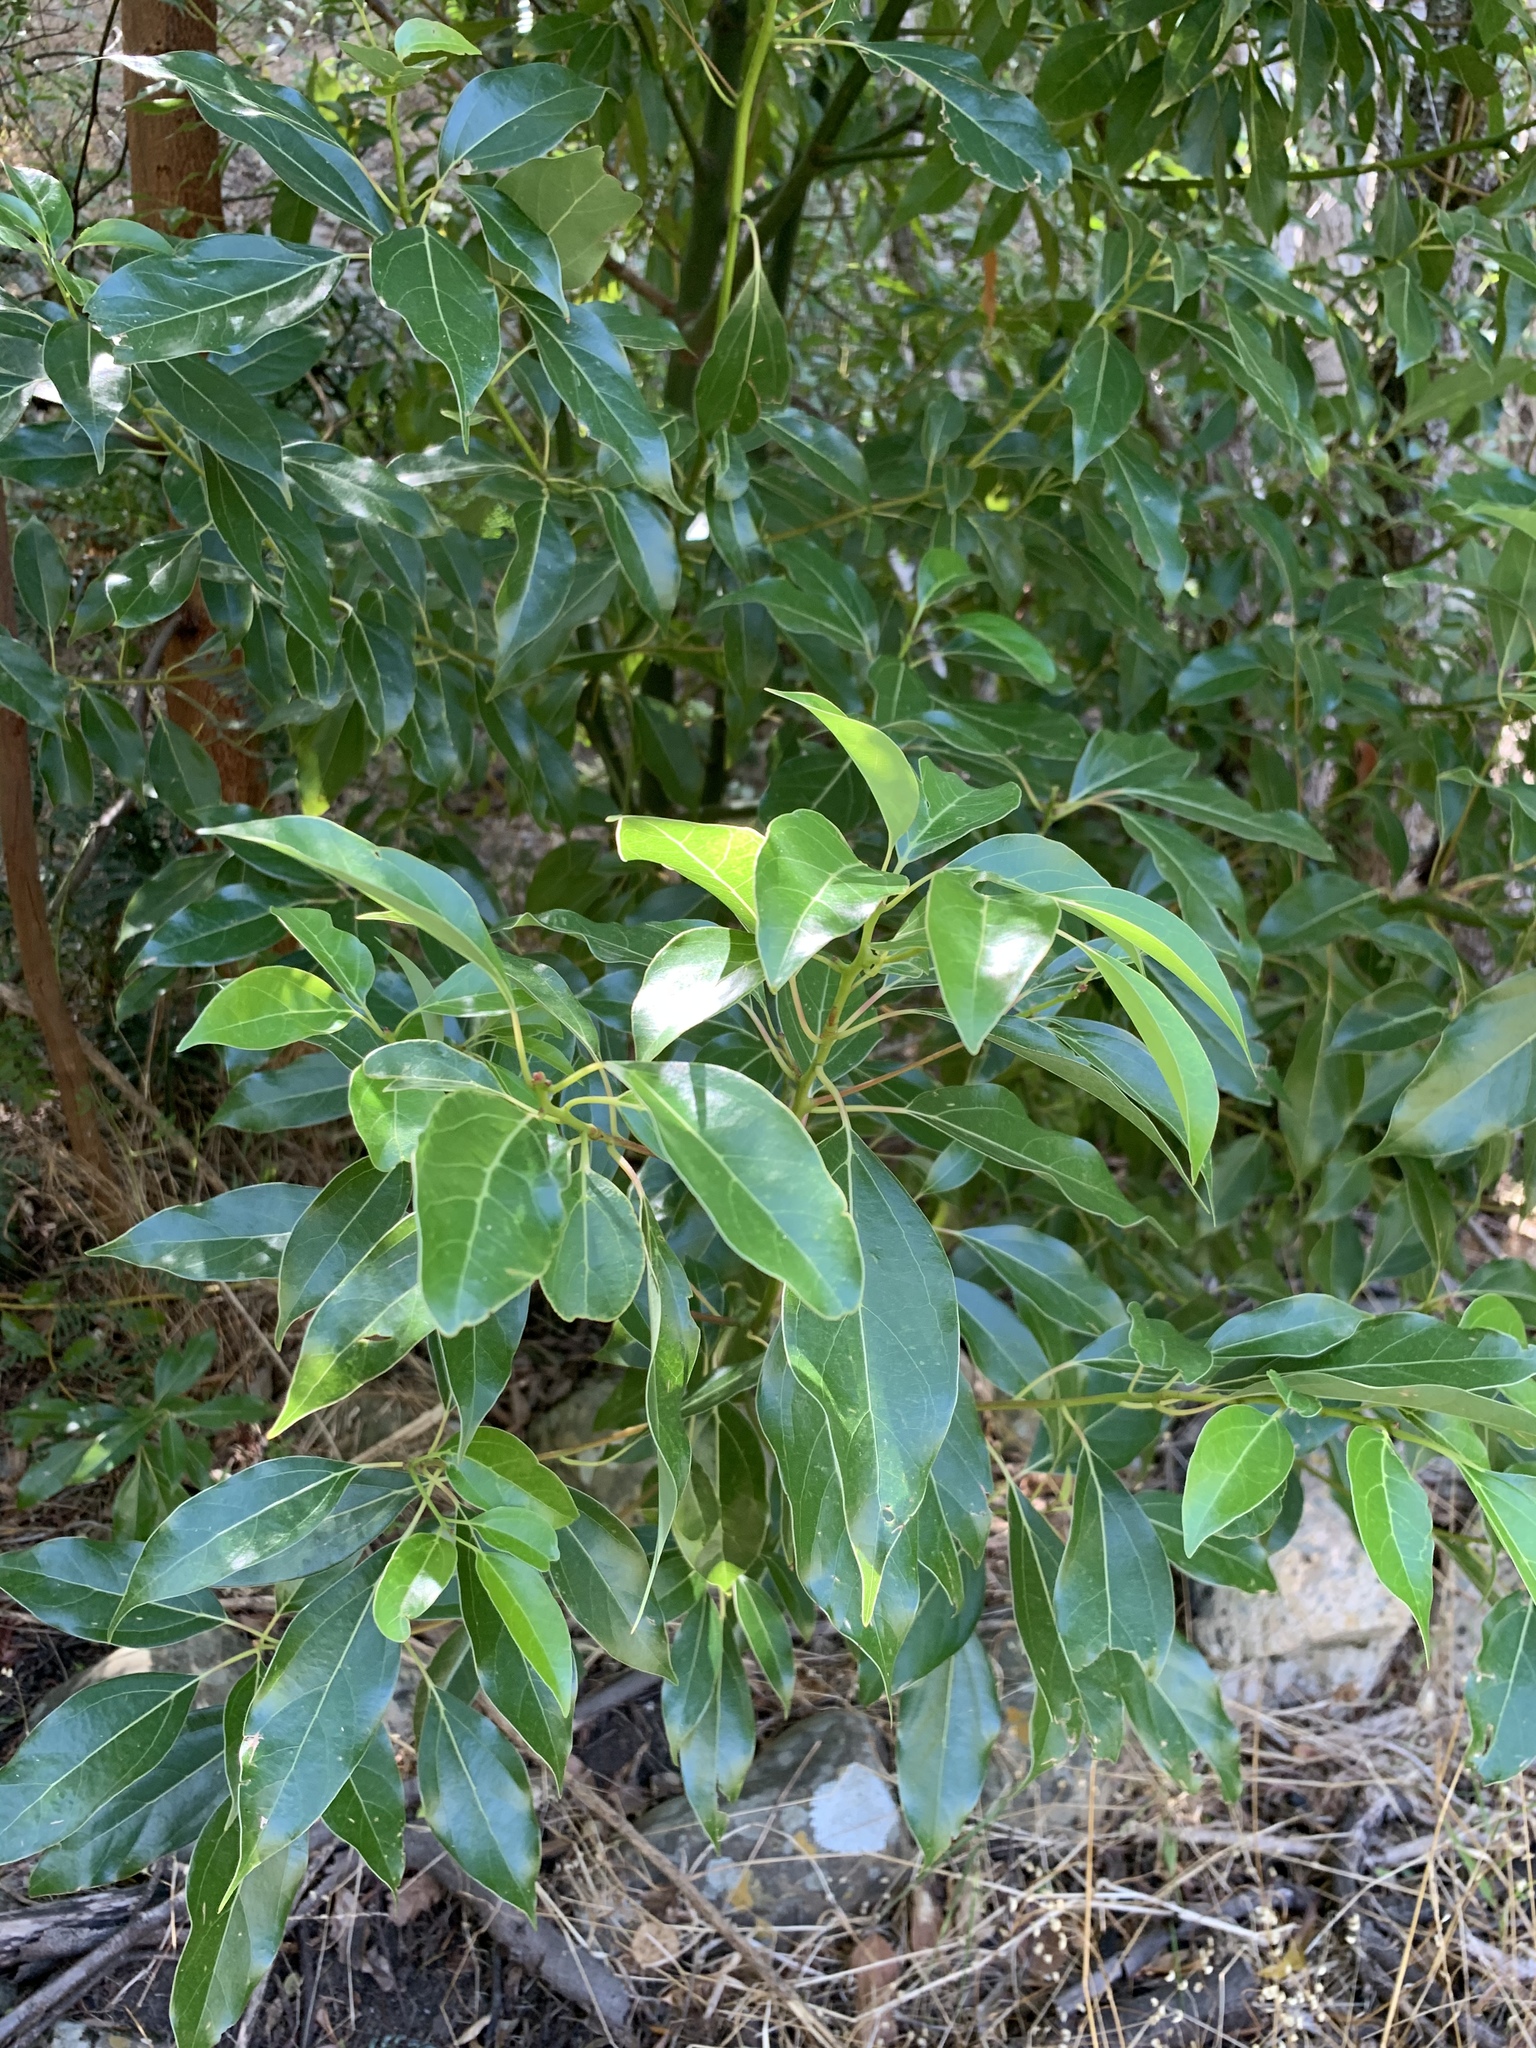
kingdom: Plantae
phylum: Tracheophyta
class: Magnoliopsida
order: Laurales
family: Lauraceae
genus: Cinnamomum
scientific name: Cinnamomum camphora
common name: Camphortree
